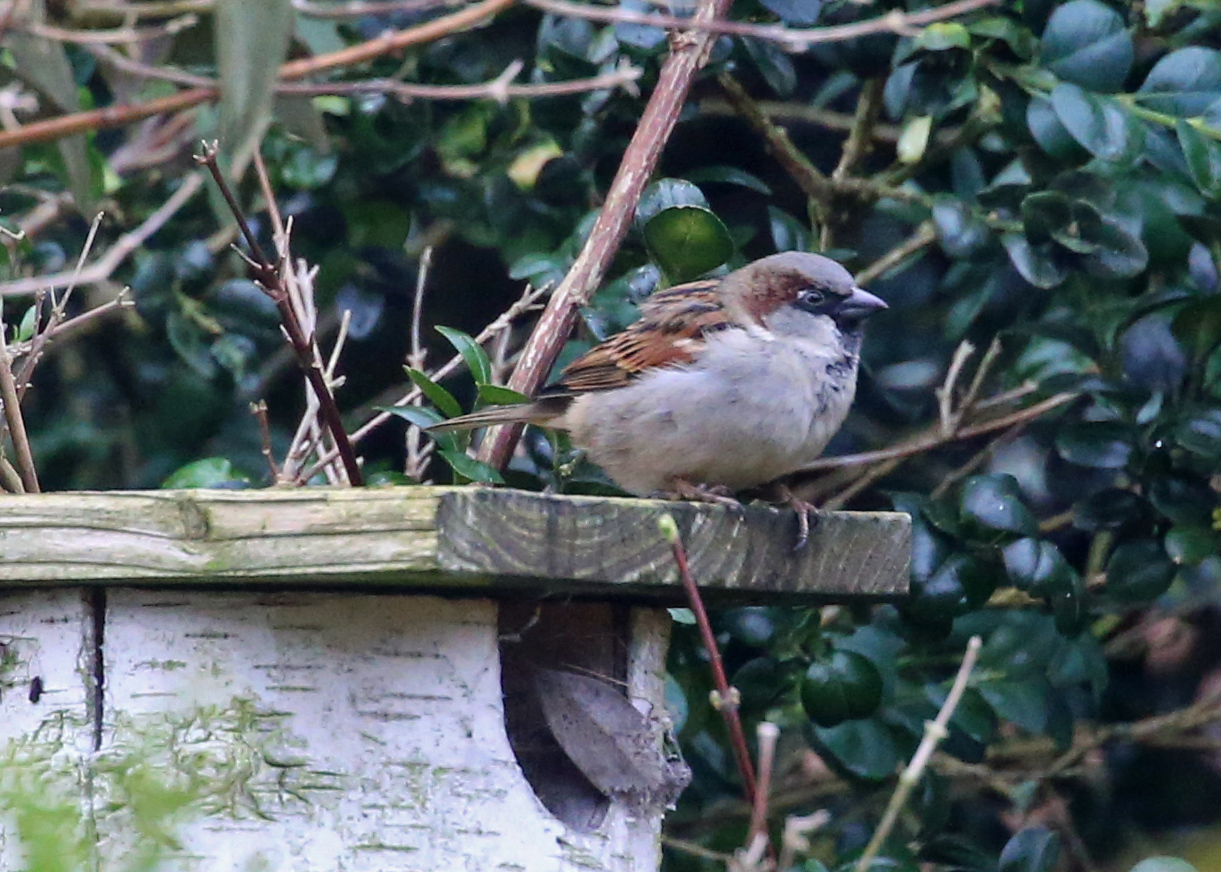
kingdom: Animalia
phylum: Chordata
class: Aves
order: Passeriformes
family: Passeridae
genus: Passer
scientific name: Passer domesticus
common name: House sparrow
